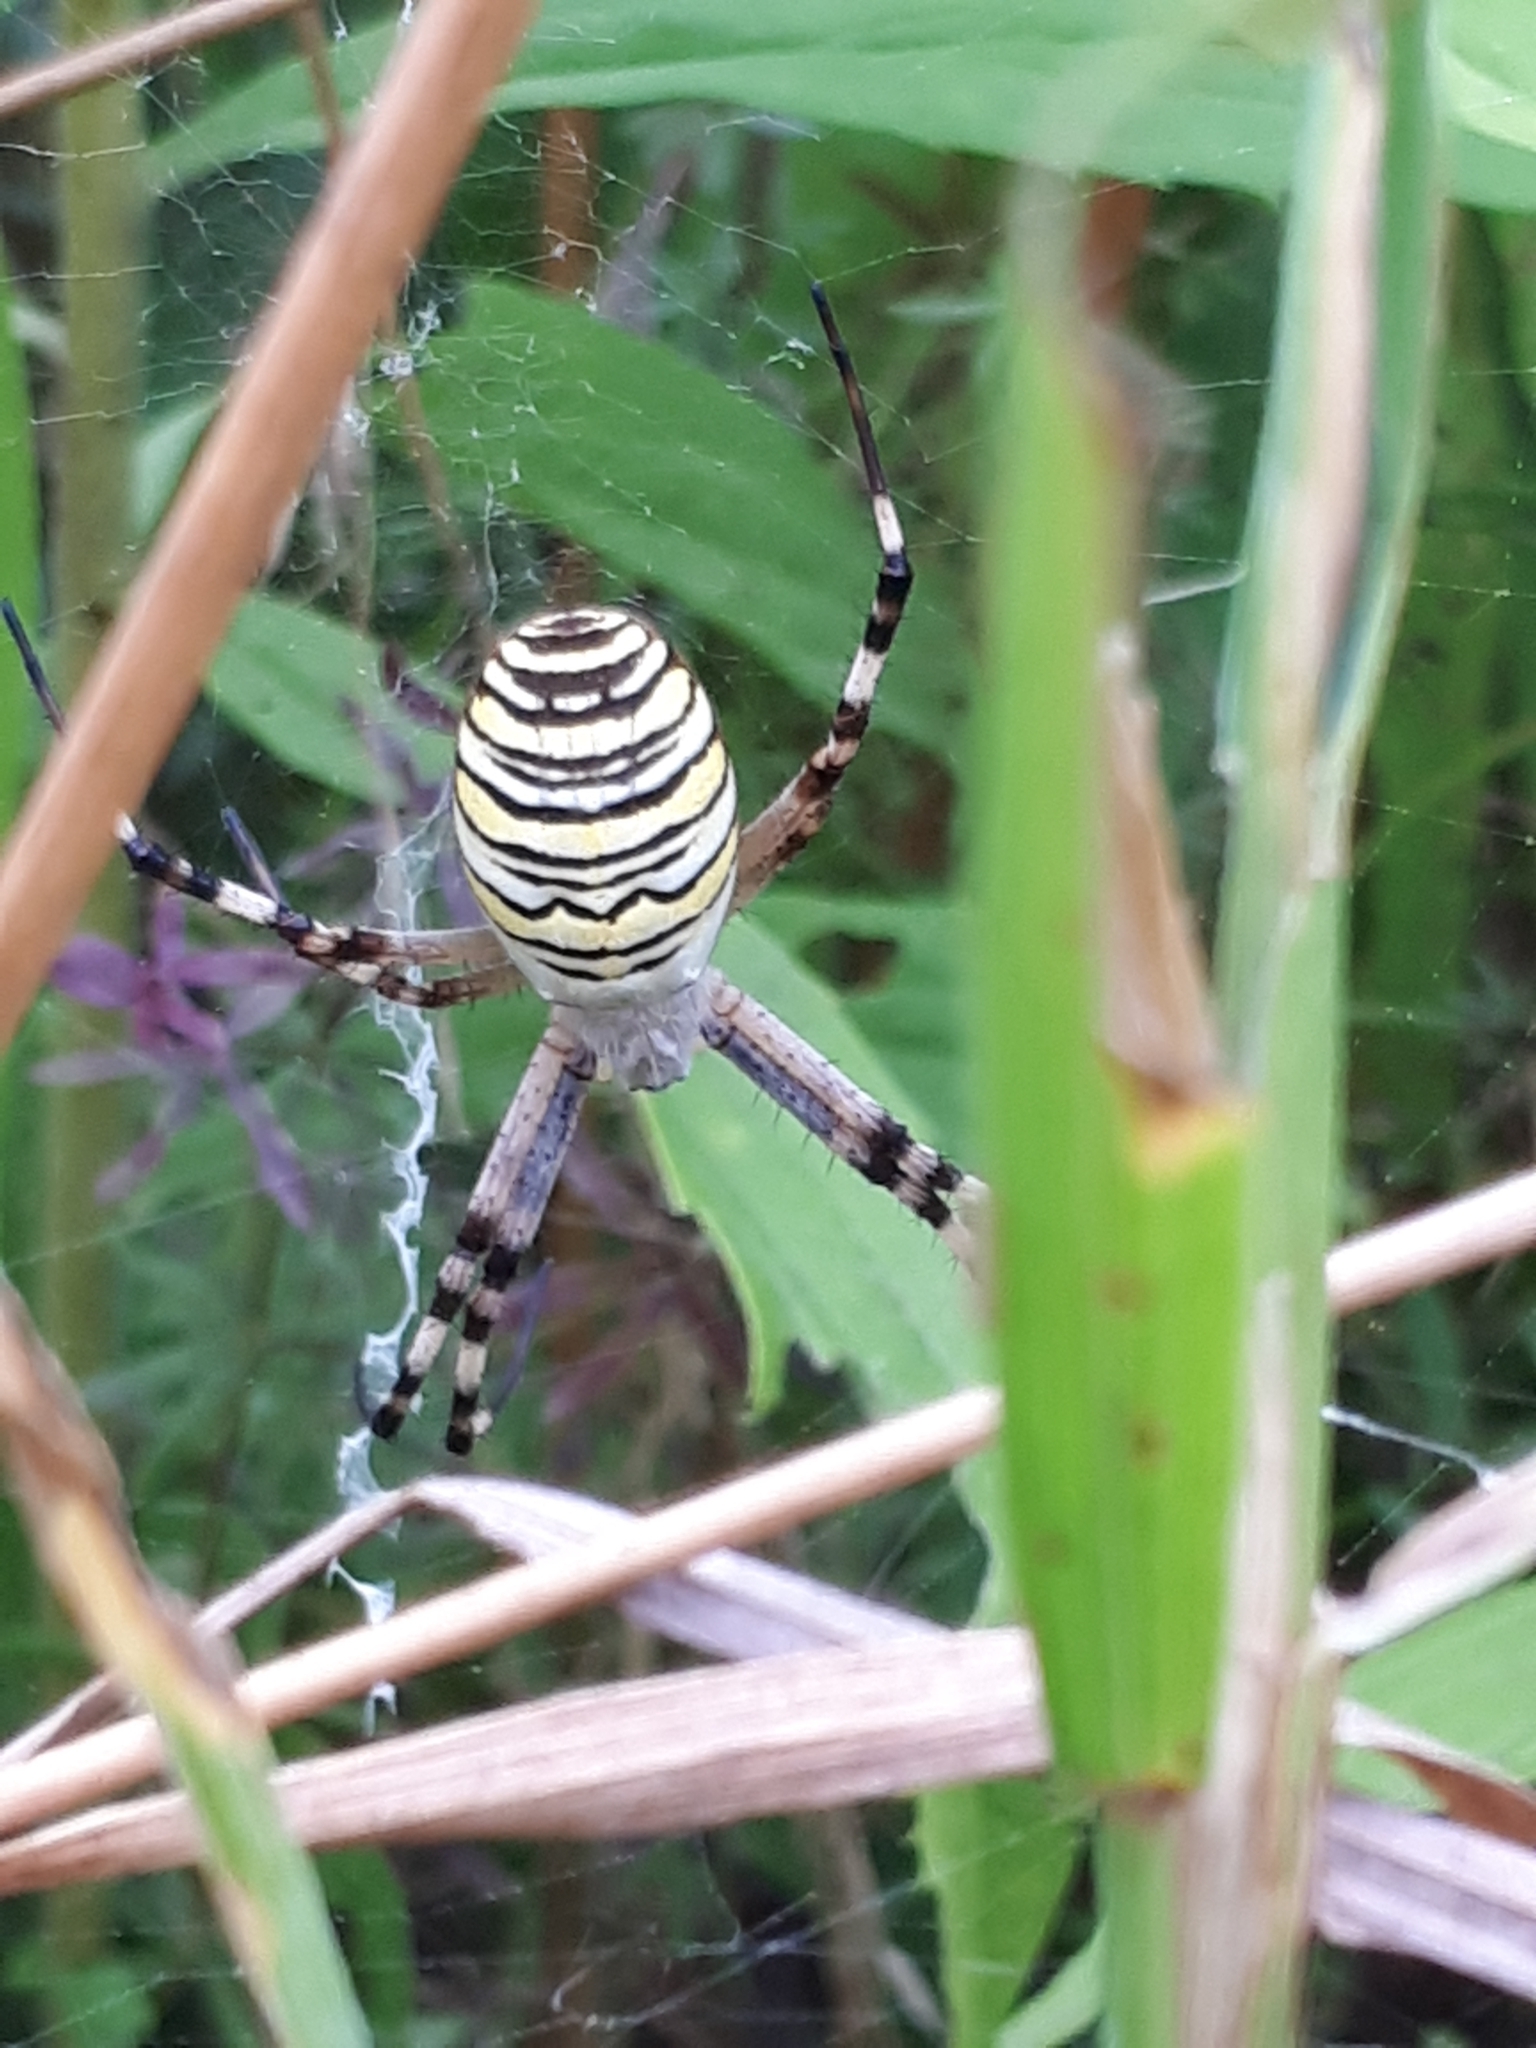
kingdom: Animalia
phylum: Arthropoda
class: Arachnida
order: Araneae
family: Araneidae
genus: Argiope
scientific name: Argiope bruennichi
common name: Wasp spider
